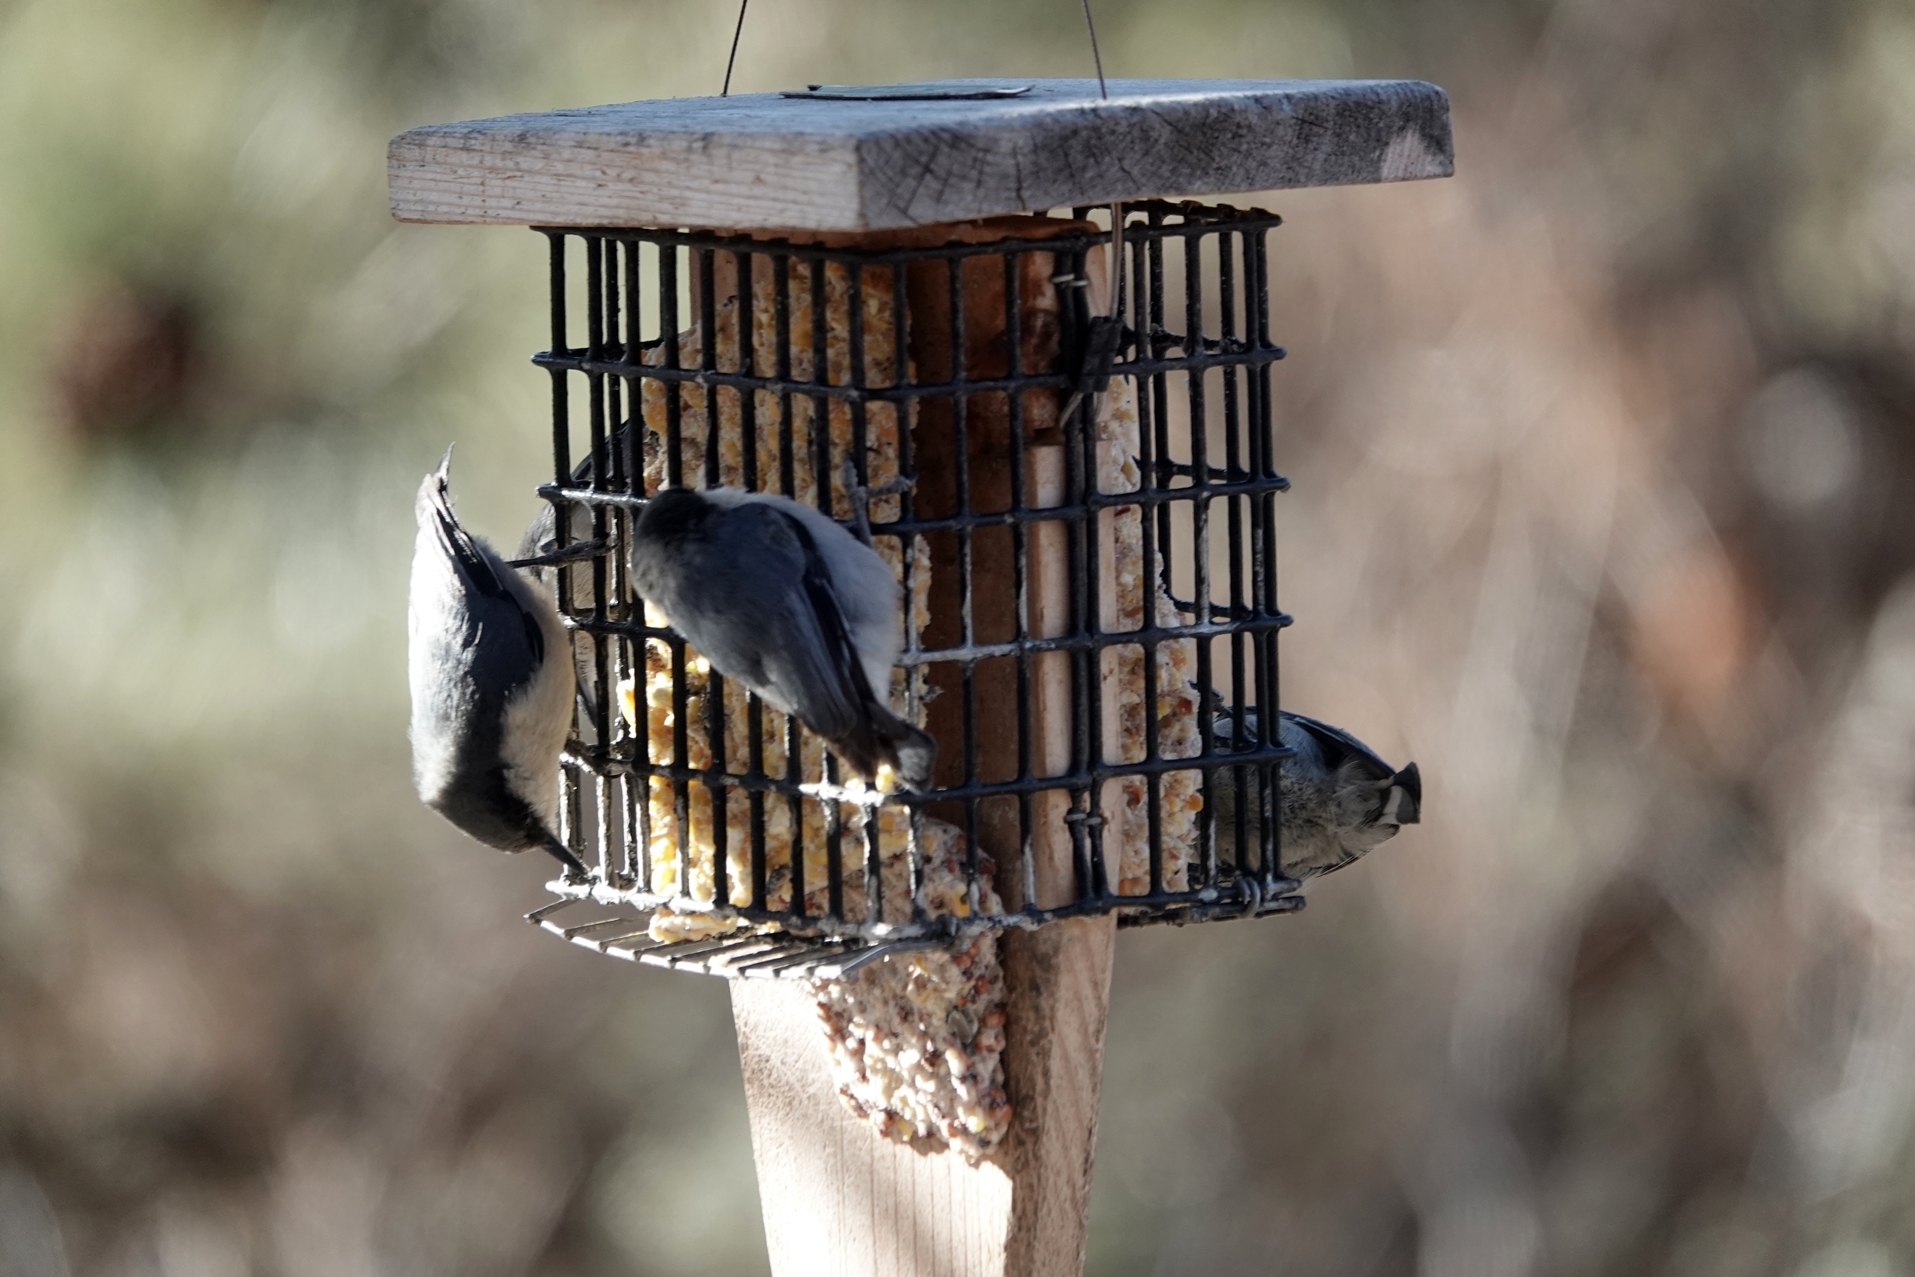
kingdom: Animalia
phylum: Chordata
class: Aves
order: Passeriformes
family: Sittidae
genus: Sitta
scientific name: Sitta pygmaea
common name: Pygmy nuthatch
